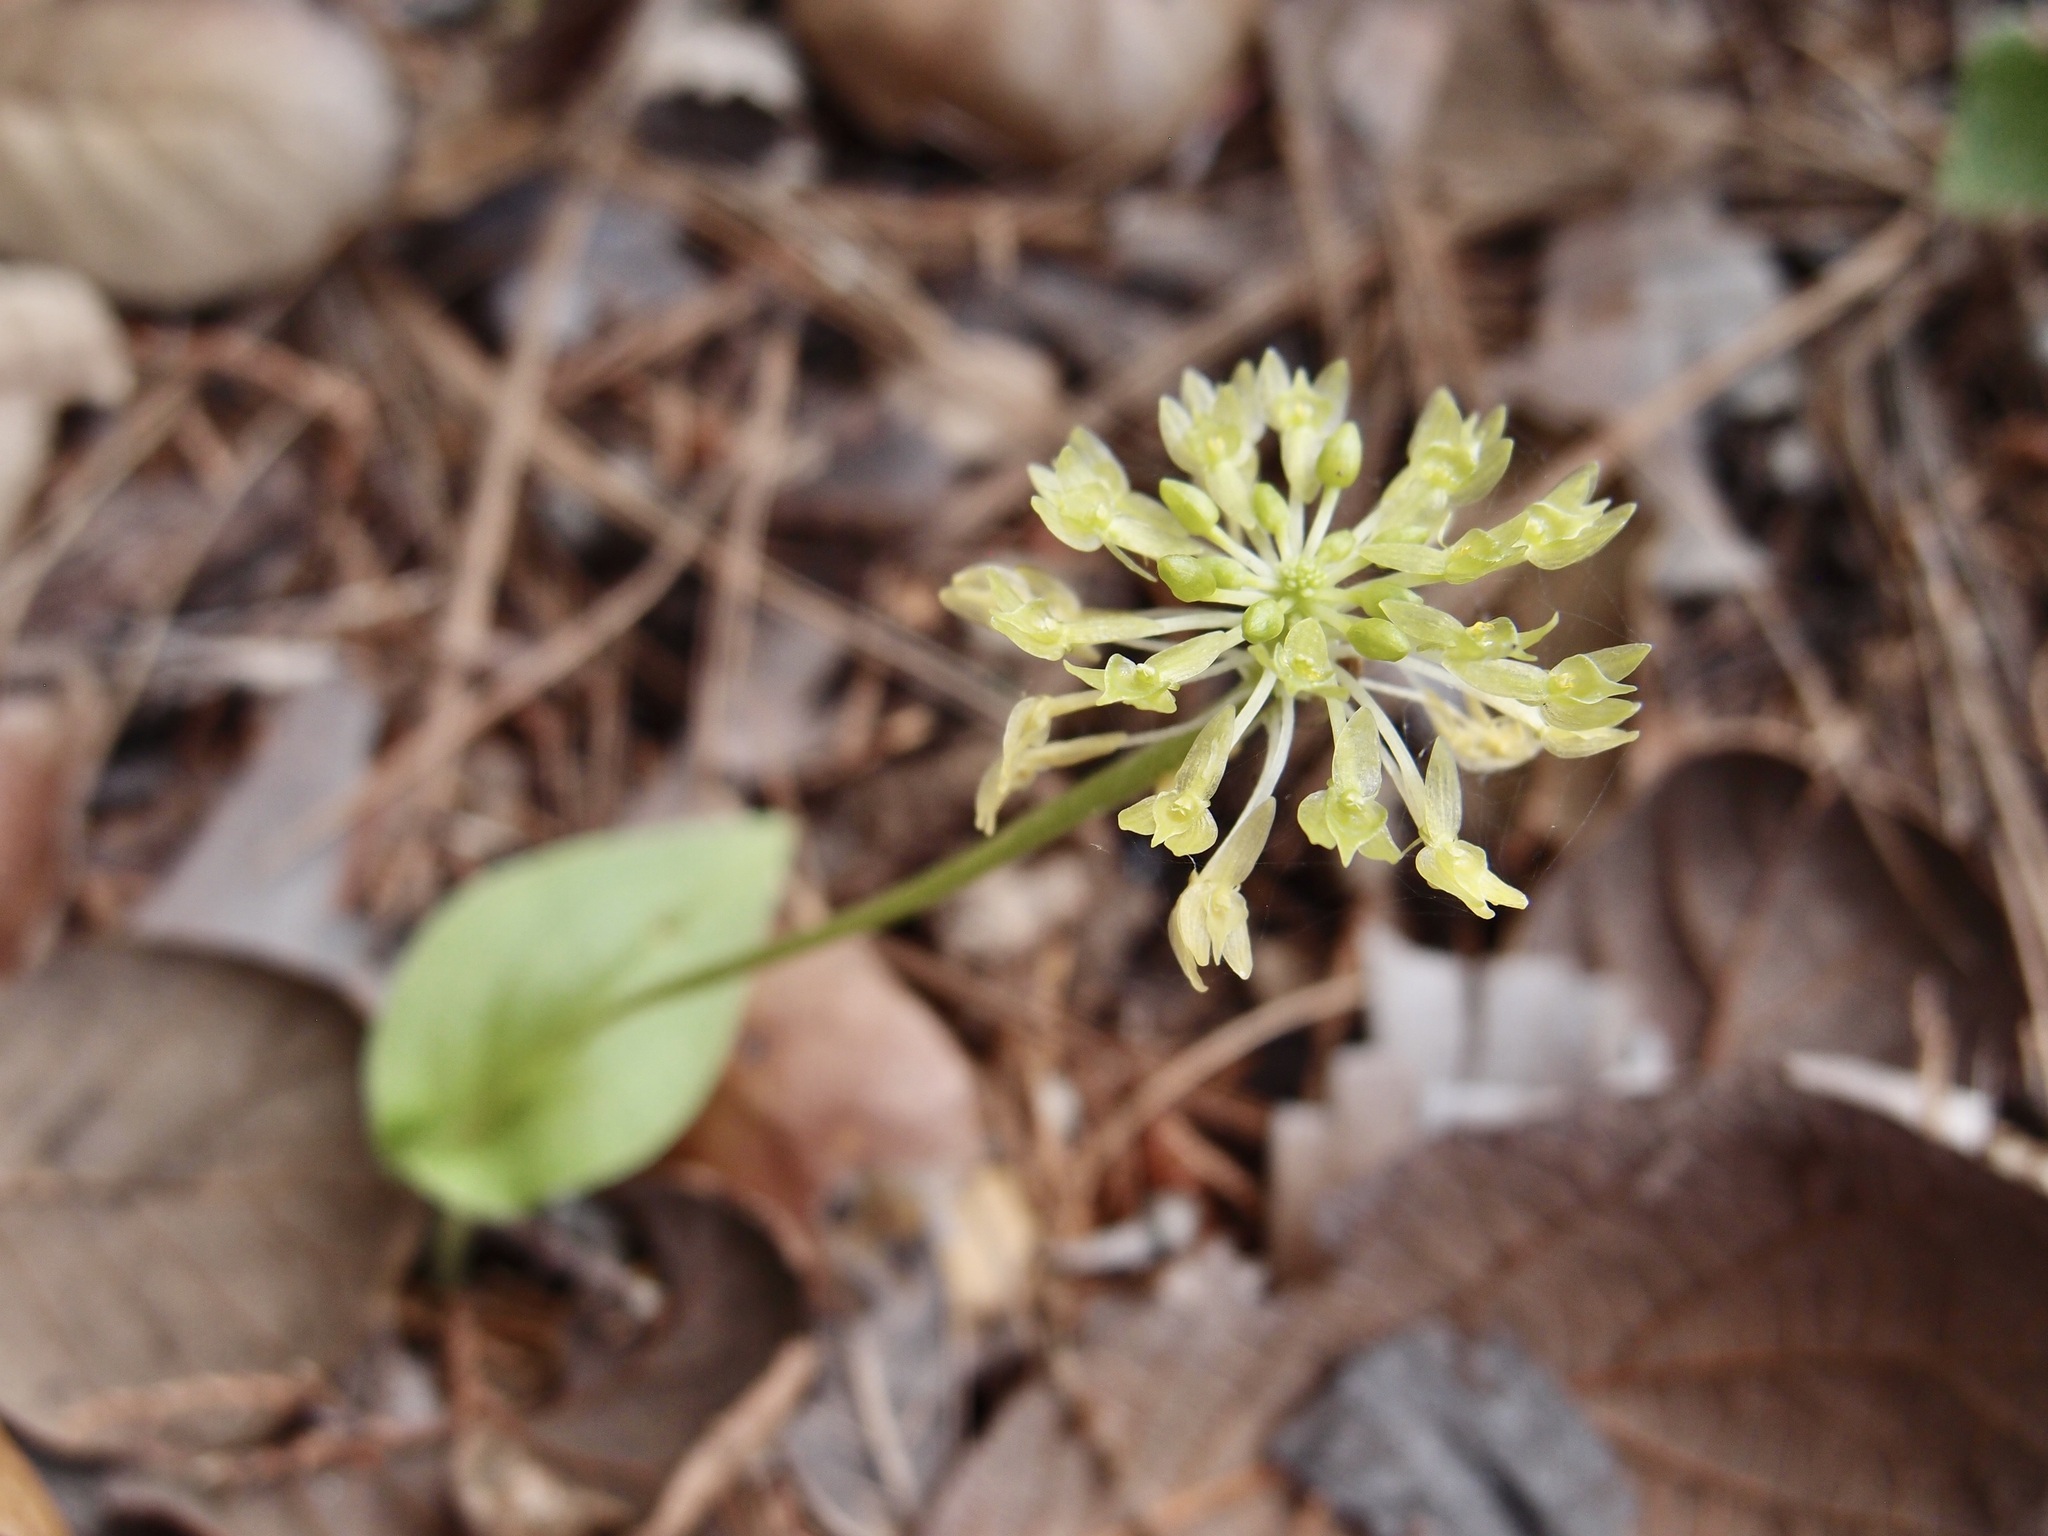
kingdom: Plantae
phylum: Tracheophyta
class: Liliopsida
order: Asparagales
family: Orchidaceae
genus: Malaxis
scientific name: Malaxis brachystachys
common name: Huachuca adder's-mouth
